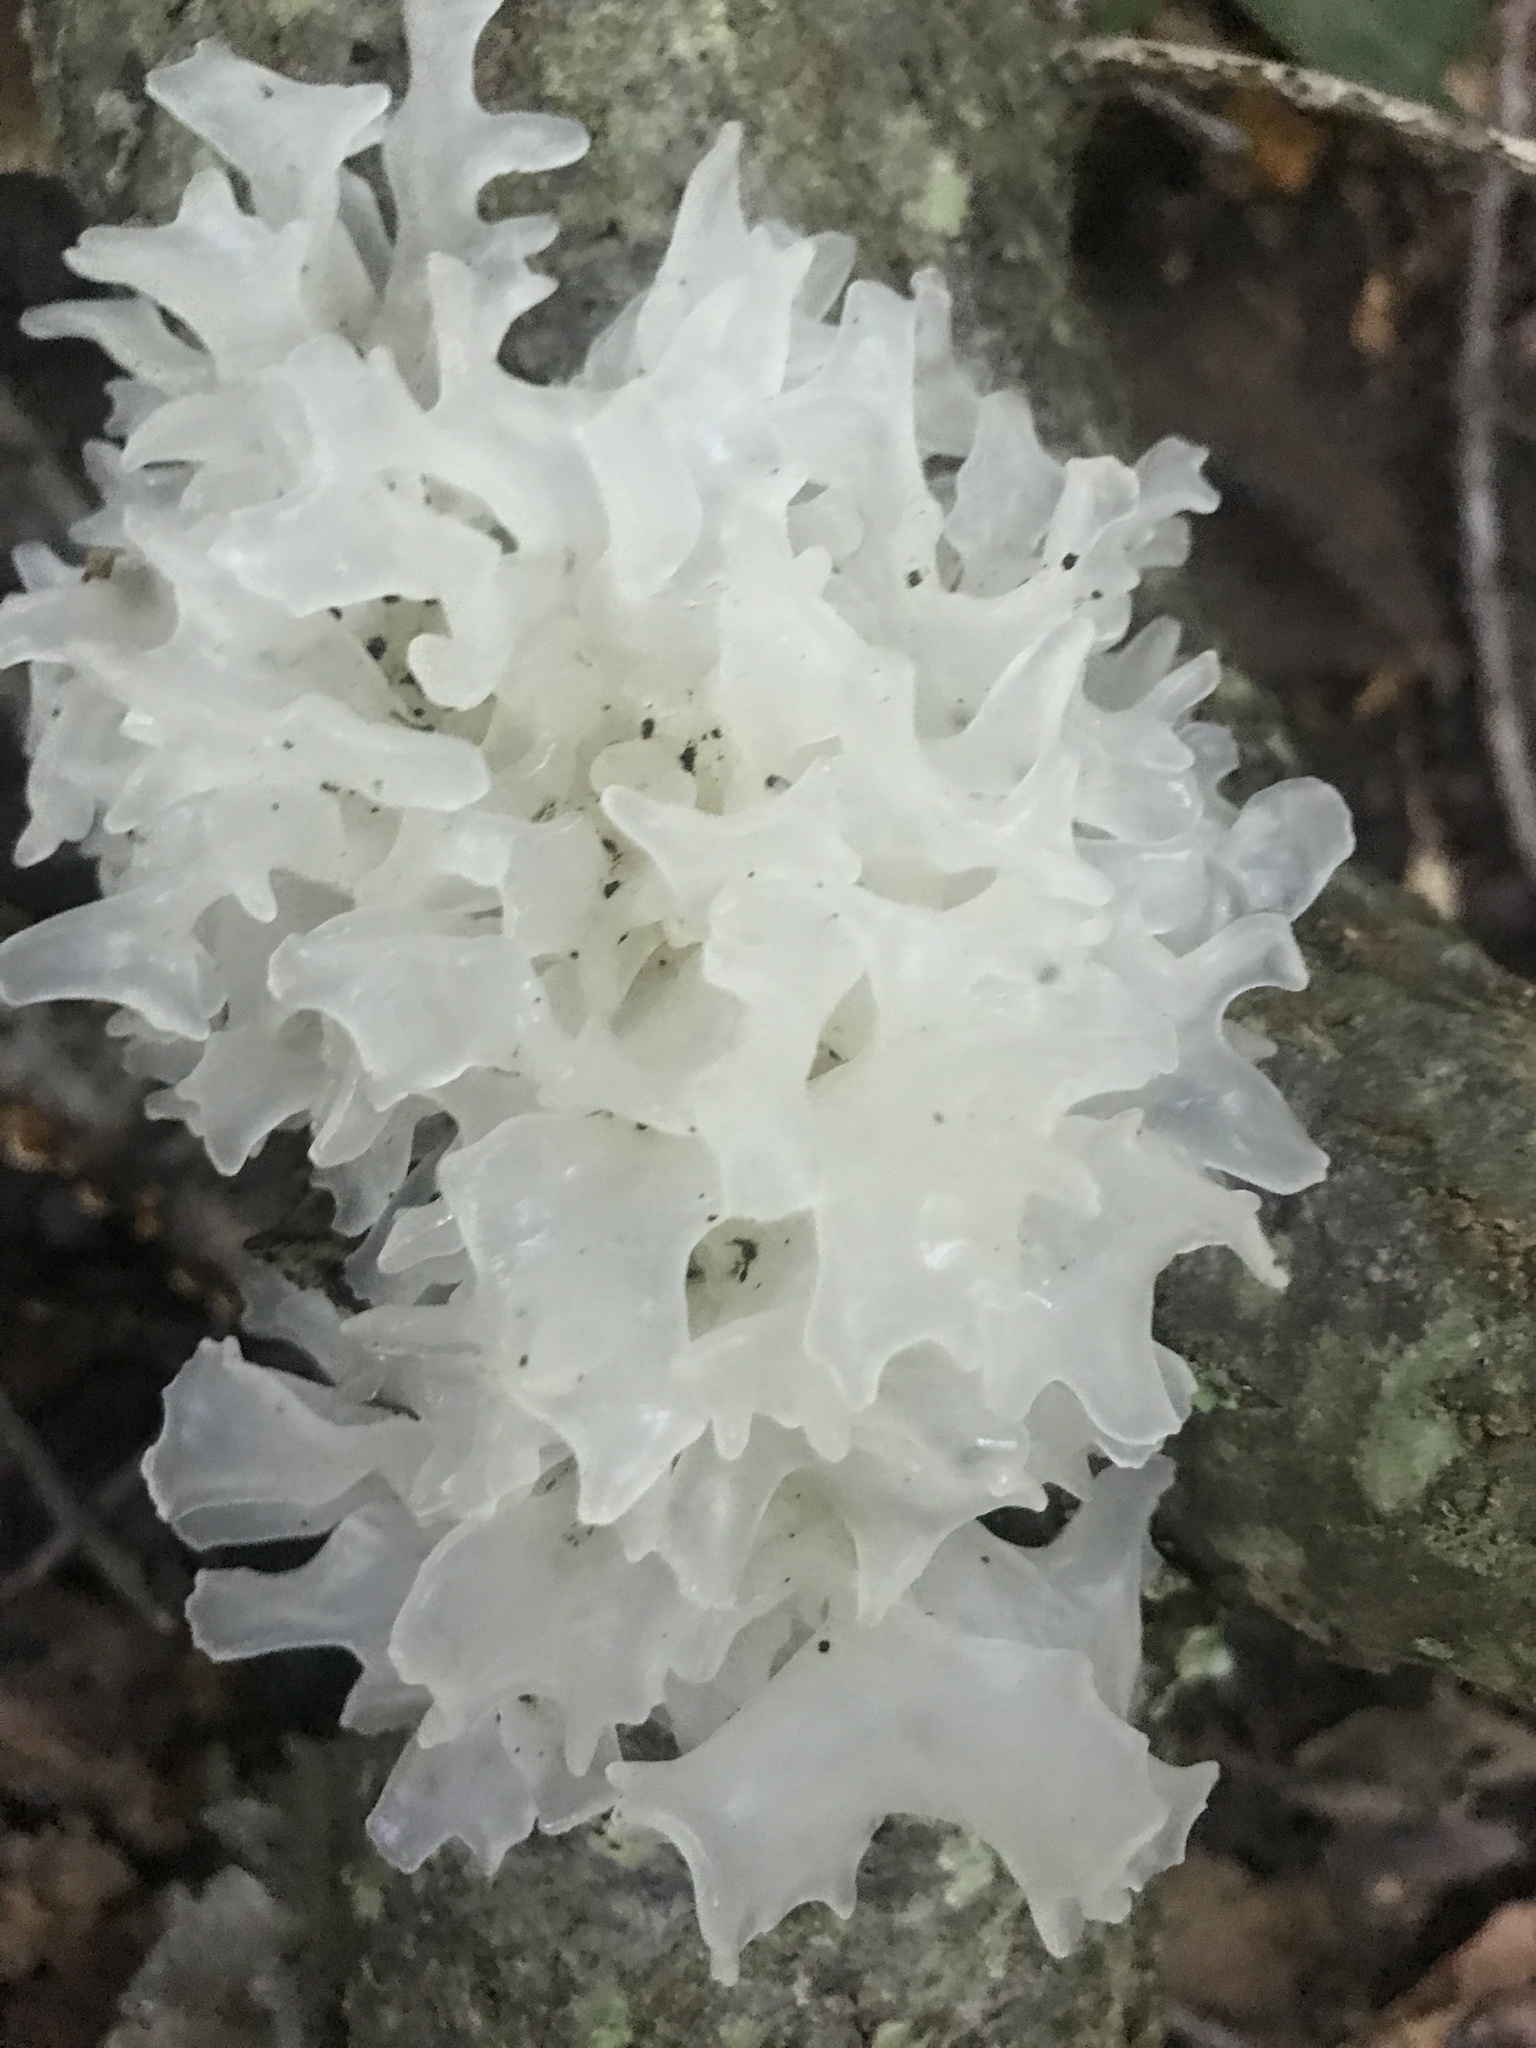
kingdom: Fungi
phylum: Basidiomycota
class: Tremellomycetes
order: Tremellales
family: Tremellaceae
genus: Tremella
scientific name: Tremella fuciformis
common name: Snow fungus
